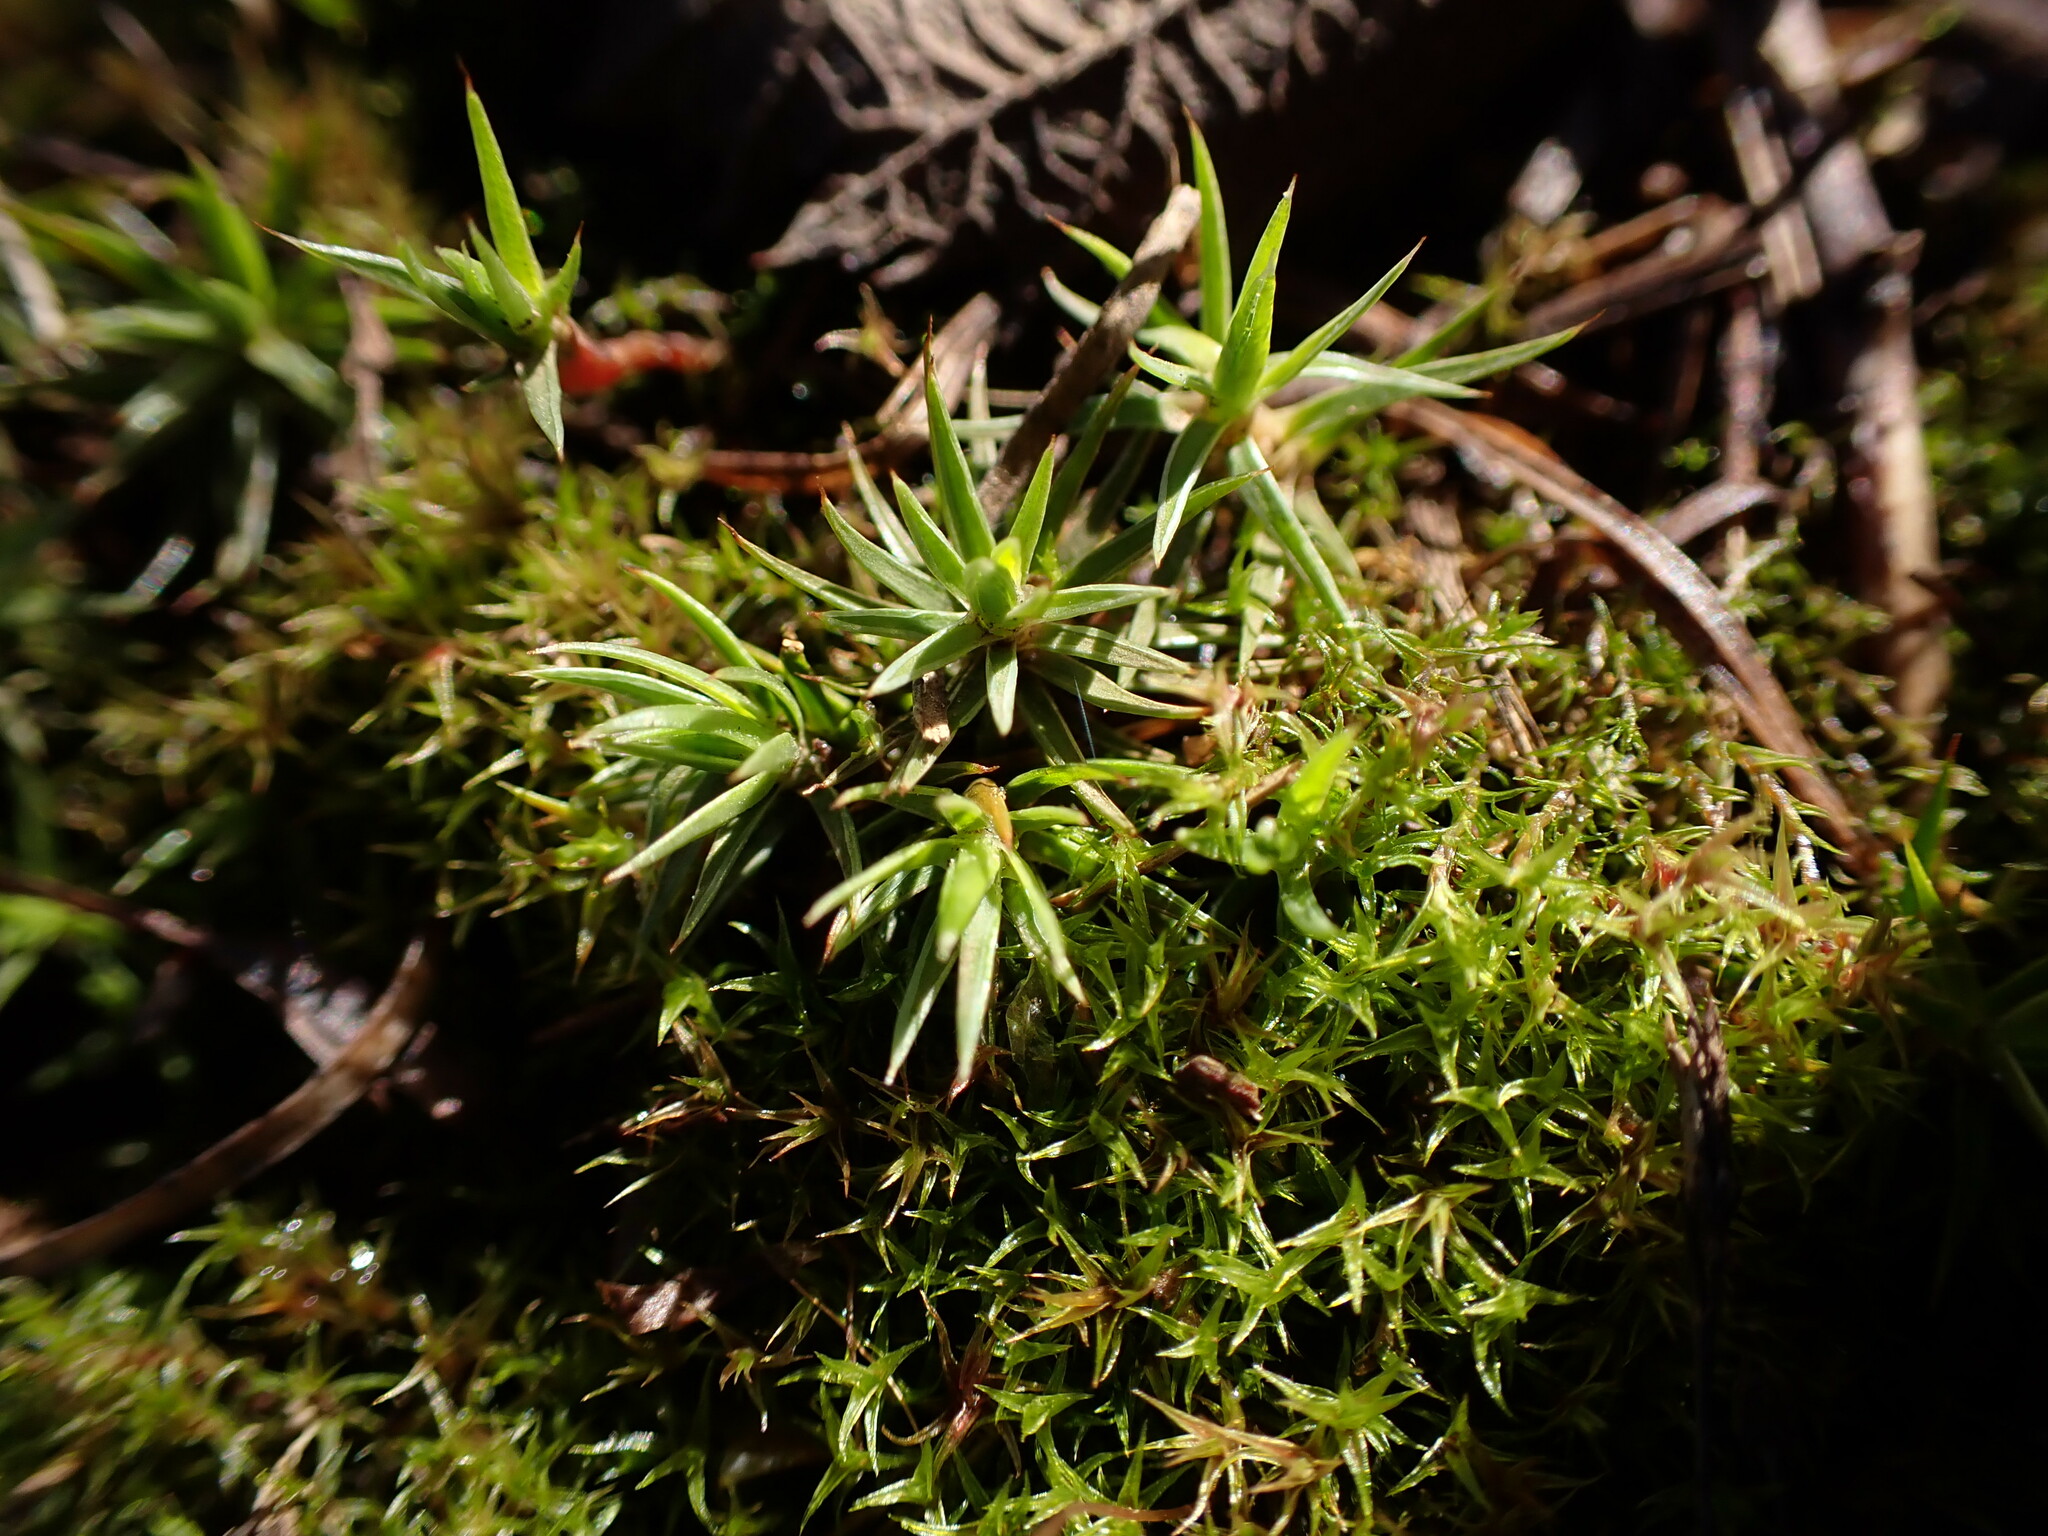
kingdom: Plantae
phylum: Bryophyta
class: Polytrichopsida
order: Polytrichales
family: Polytrichaceae
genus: Polytrichum
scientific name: Polytrichum juniperinum
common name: Juniper haircap moss
